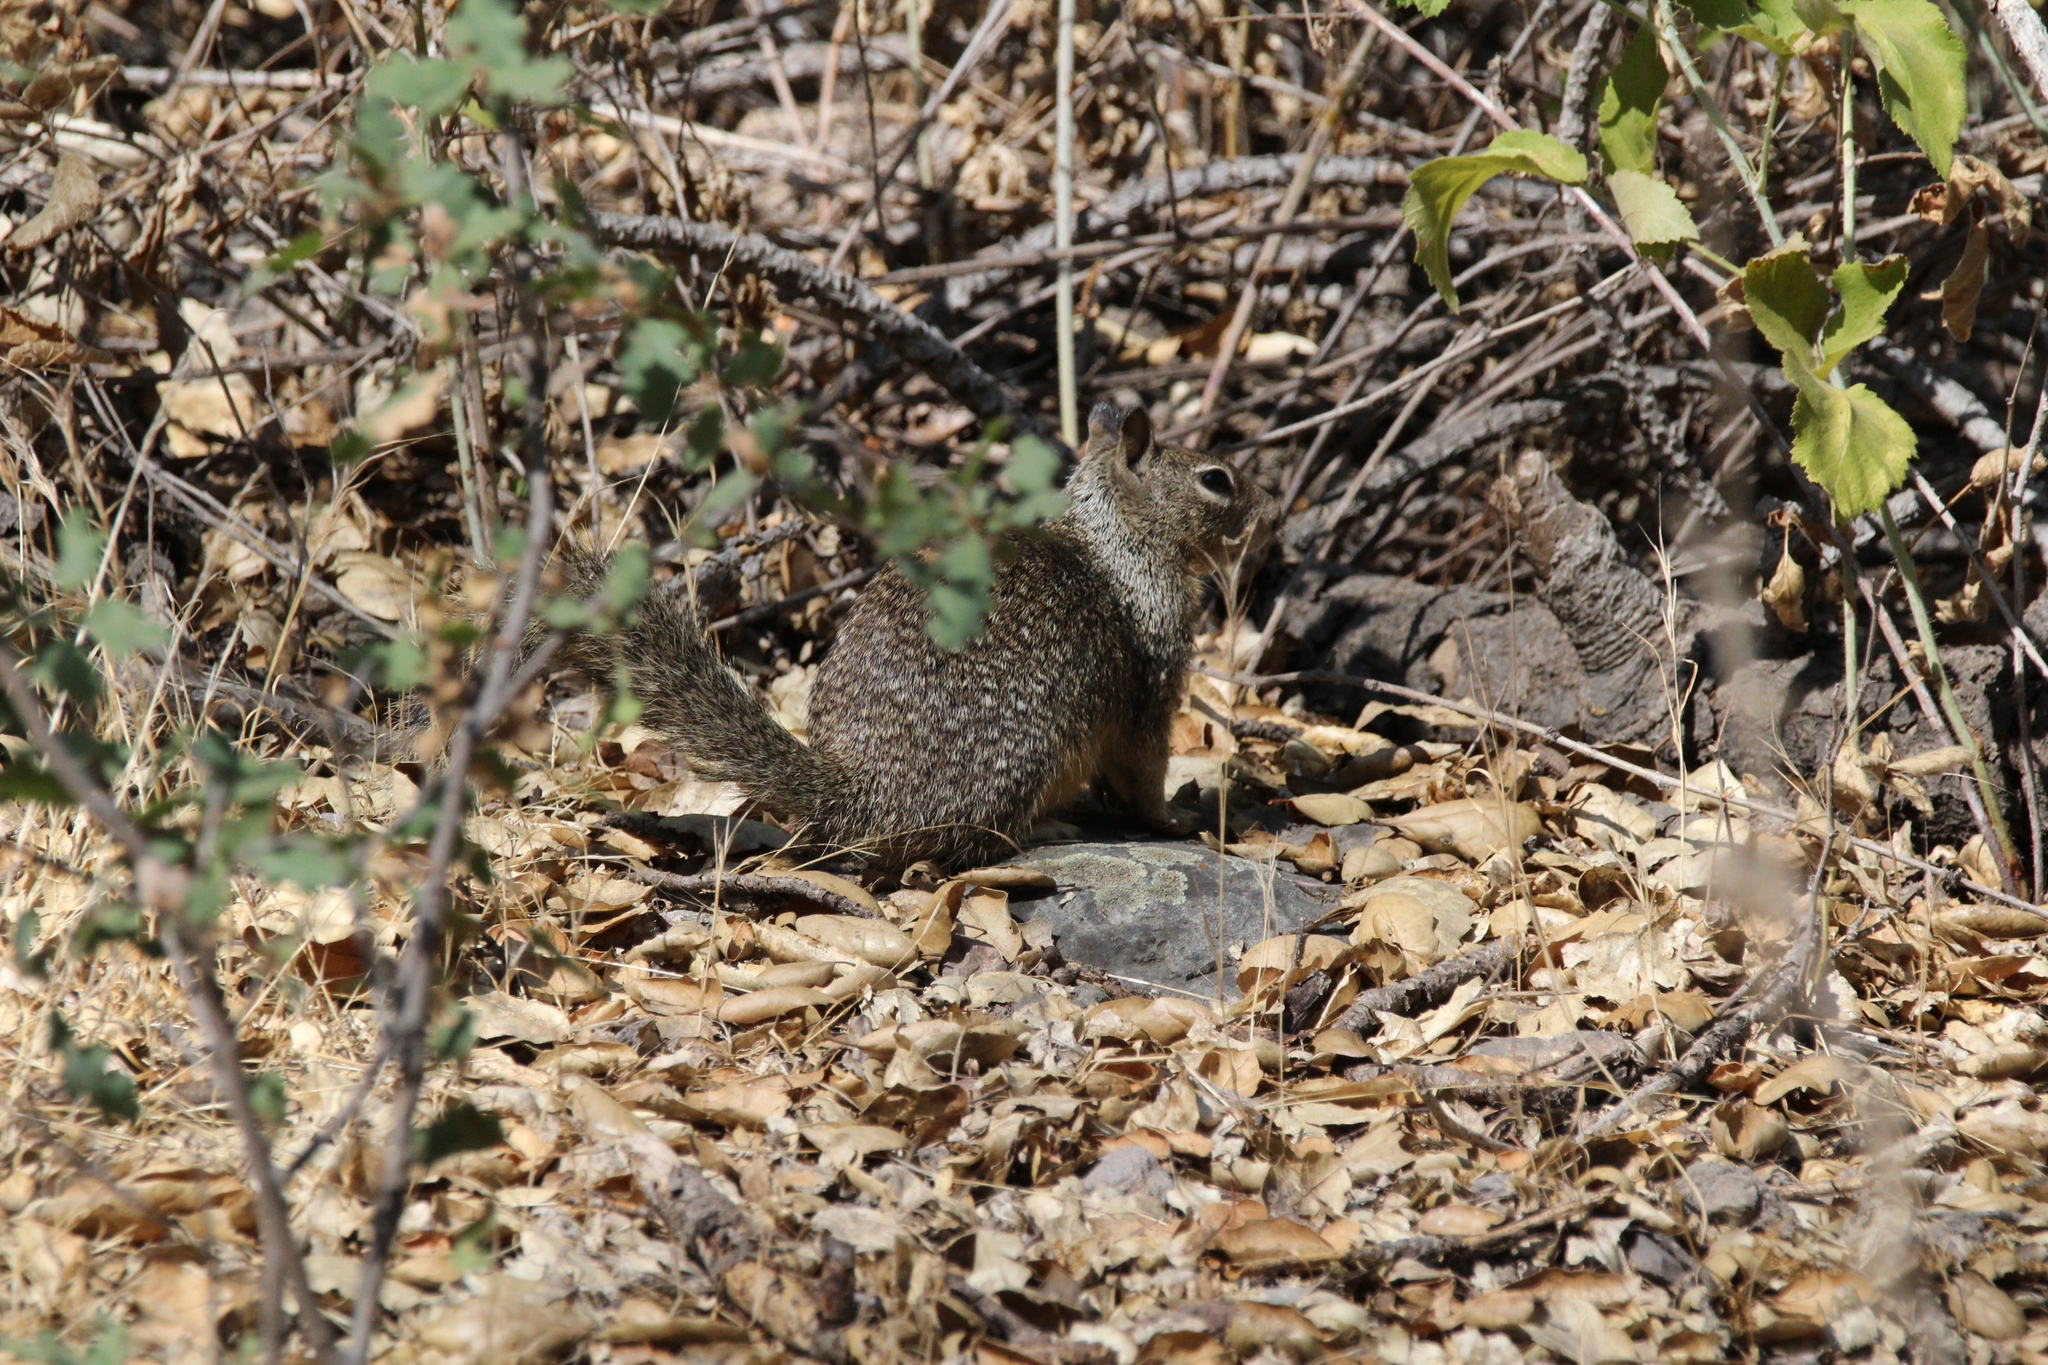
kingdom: Animalia
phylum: Chordata
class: Mammalia
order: Rodentia
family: Sciuridae
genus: Otospermophilus
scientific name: Otospermophilus beecheyi
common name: California ground squirrel
